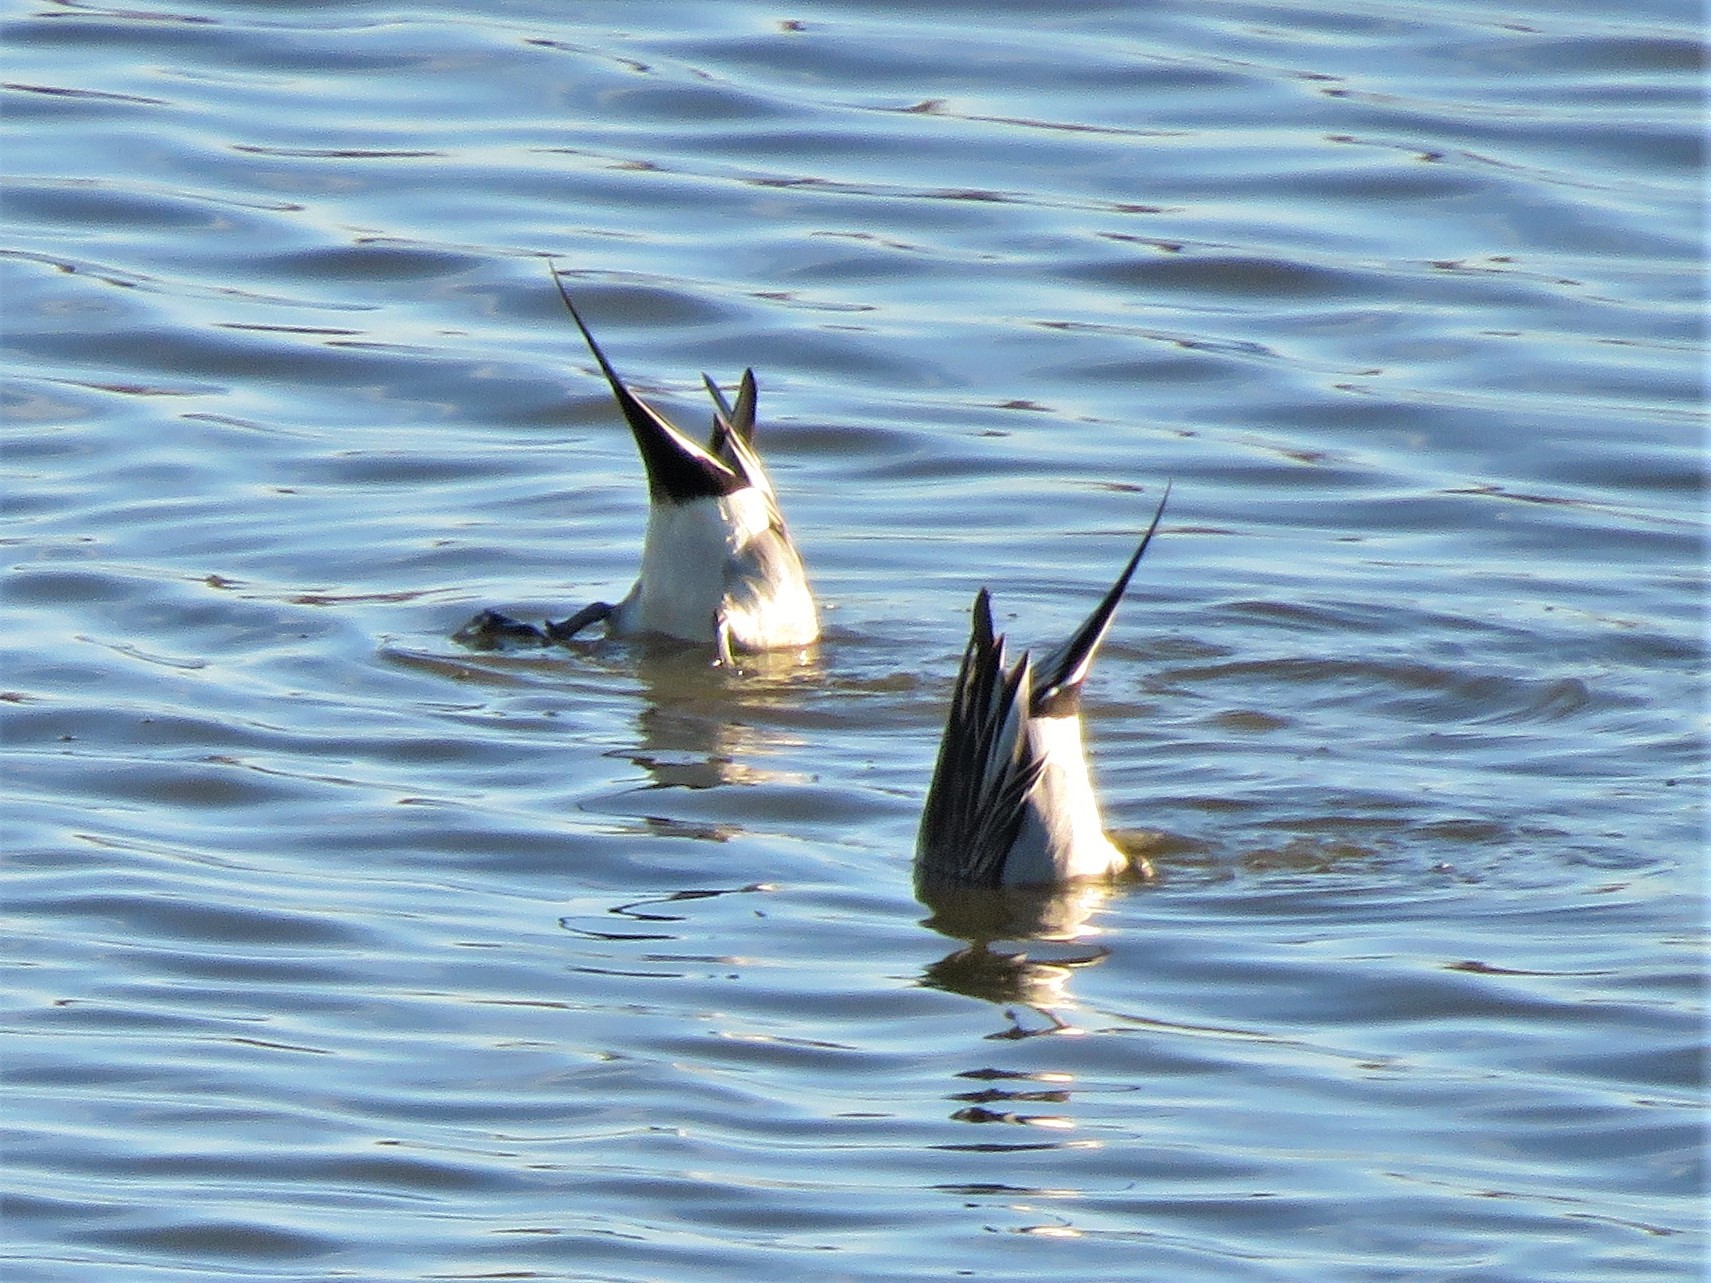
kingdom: Animalia
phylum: Chordata
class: Aves
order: Anseriformes
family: Anatidae
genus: Anas
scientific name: Anas acuta
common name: Northern pintail
